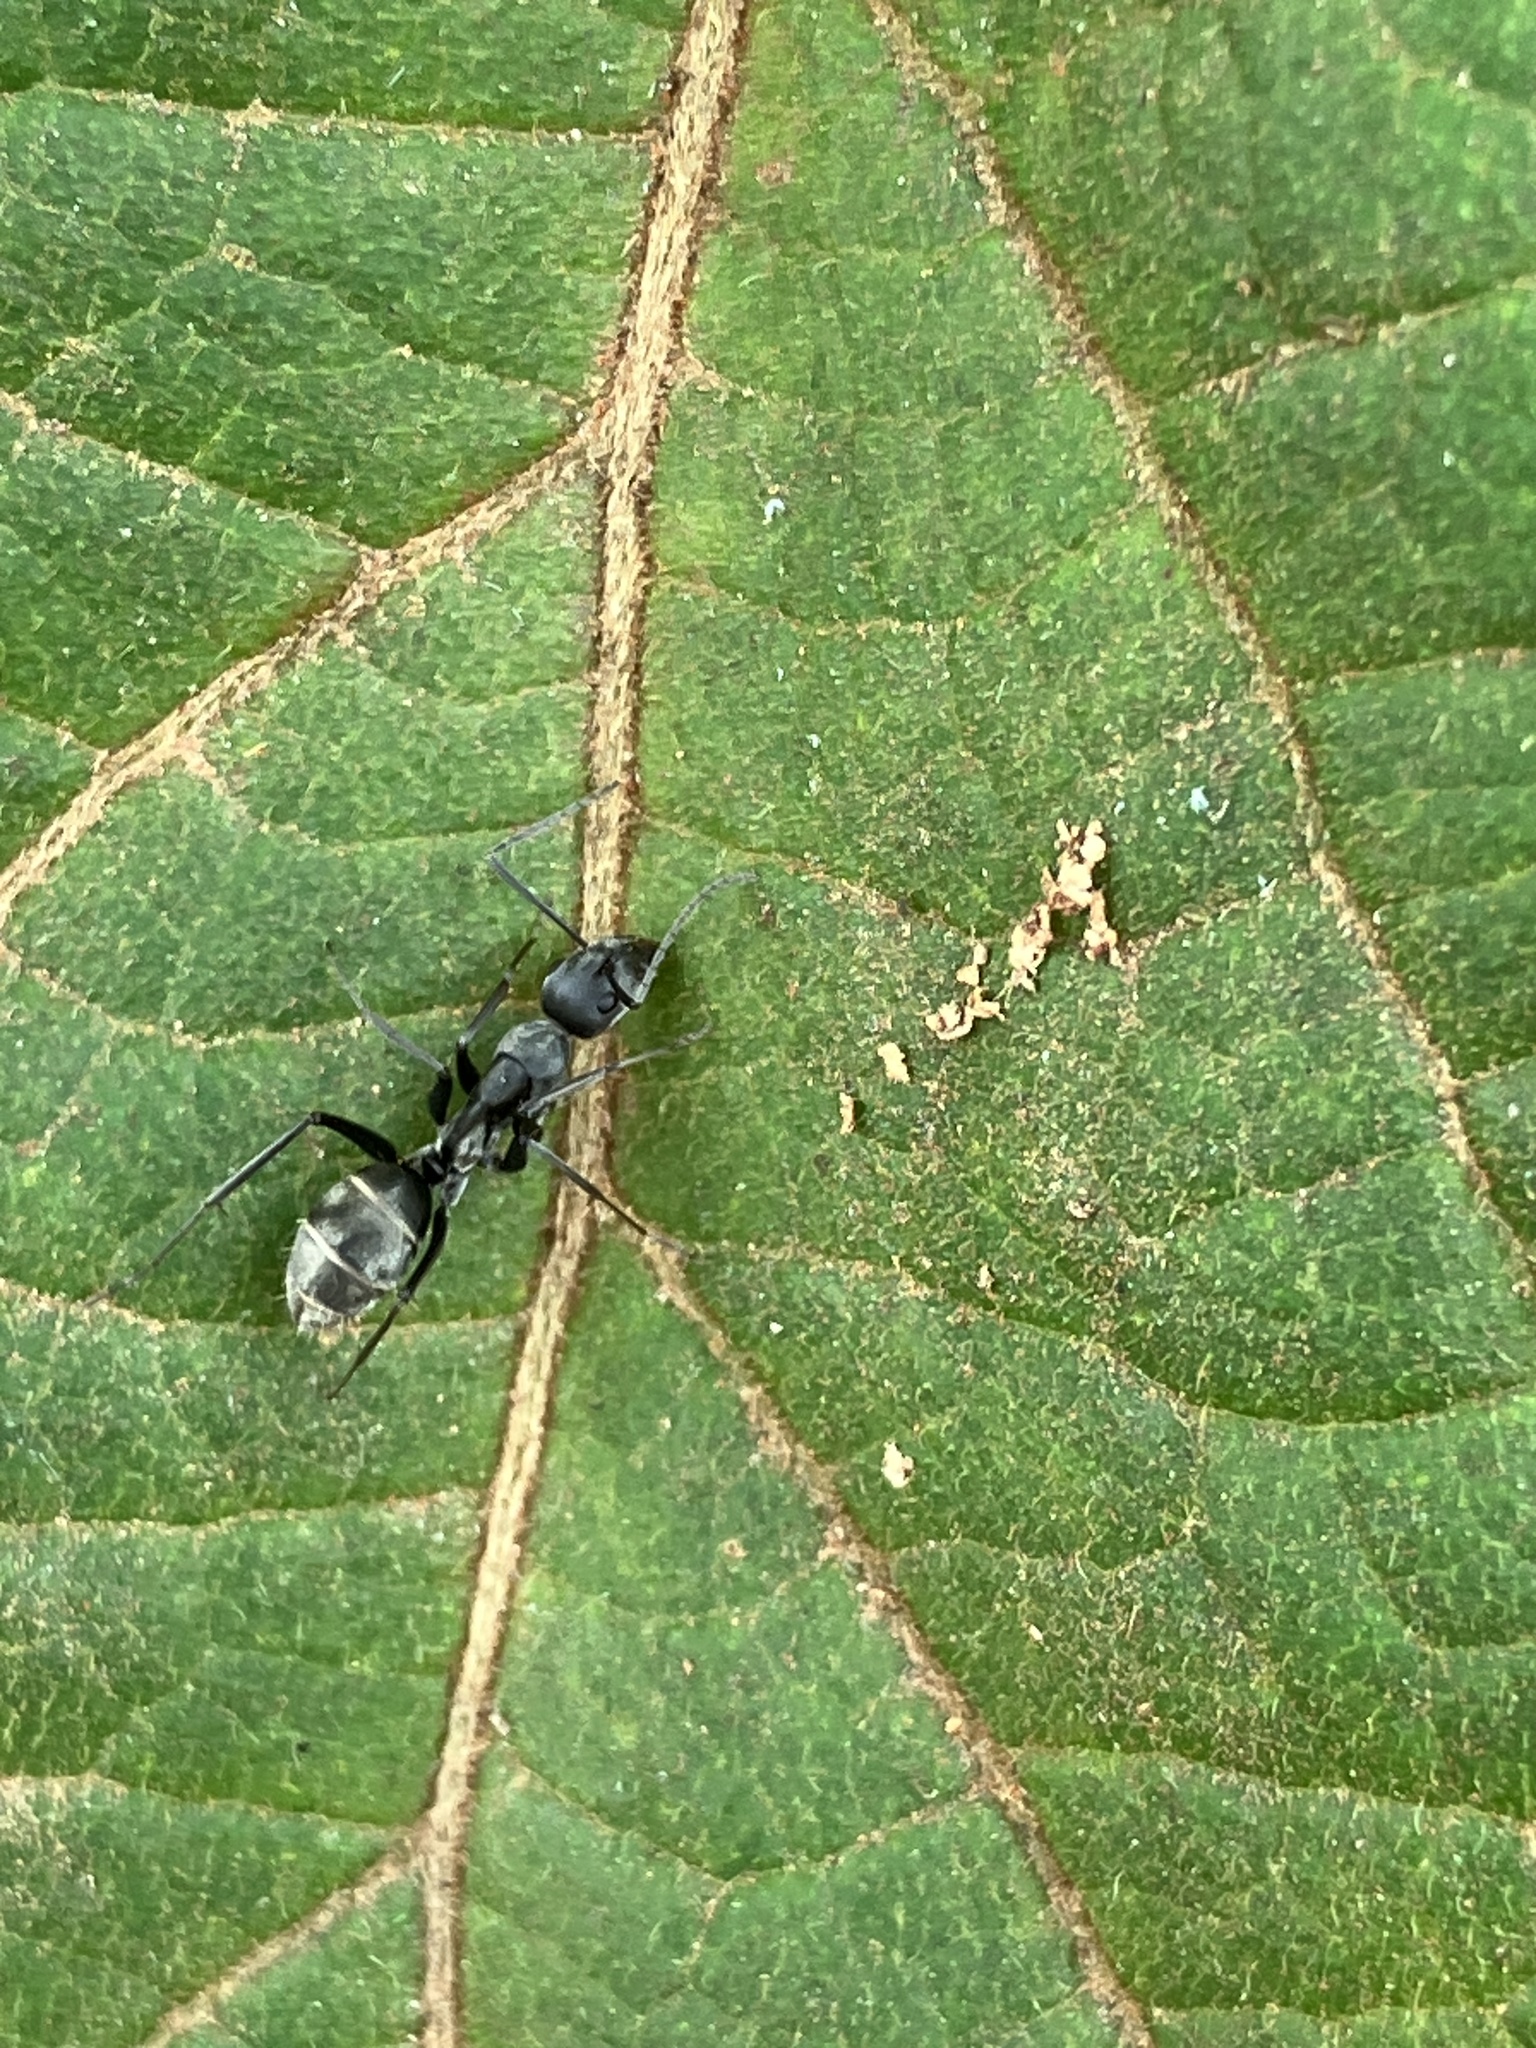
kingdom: Animalia
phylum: Arthropoda
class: Insecta
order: Hymenoptera
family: Formicidae
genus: Camponotus
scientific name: Camponotus parius
